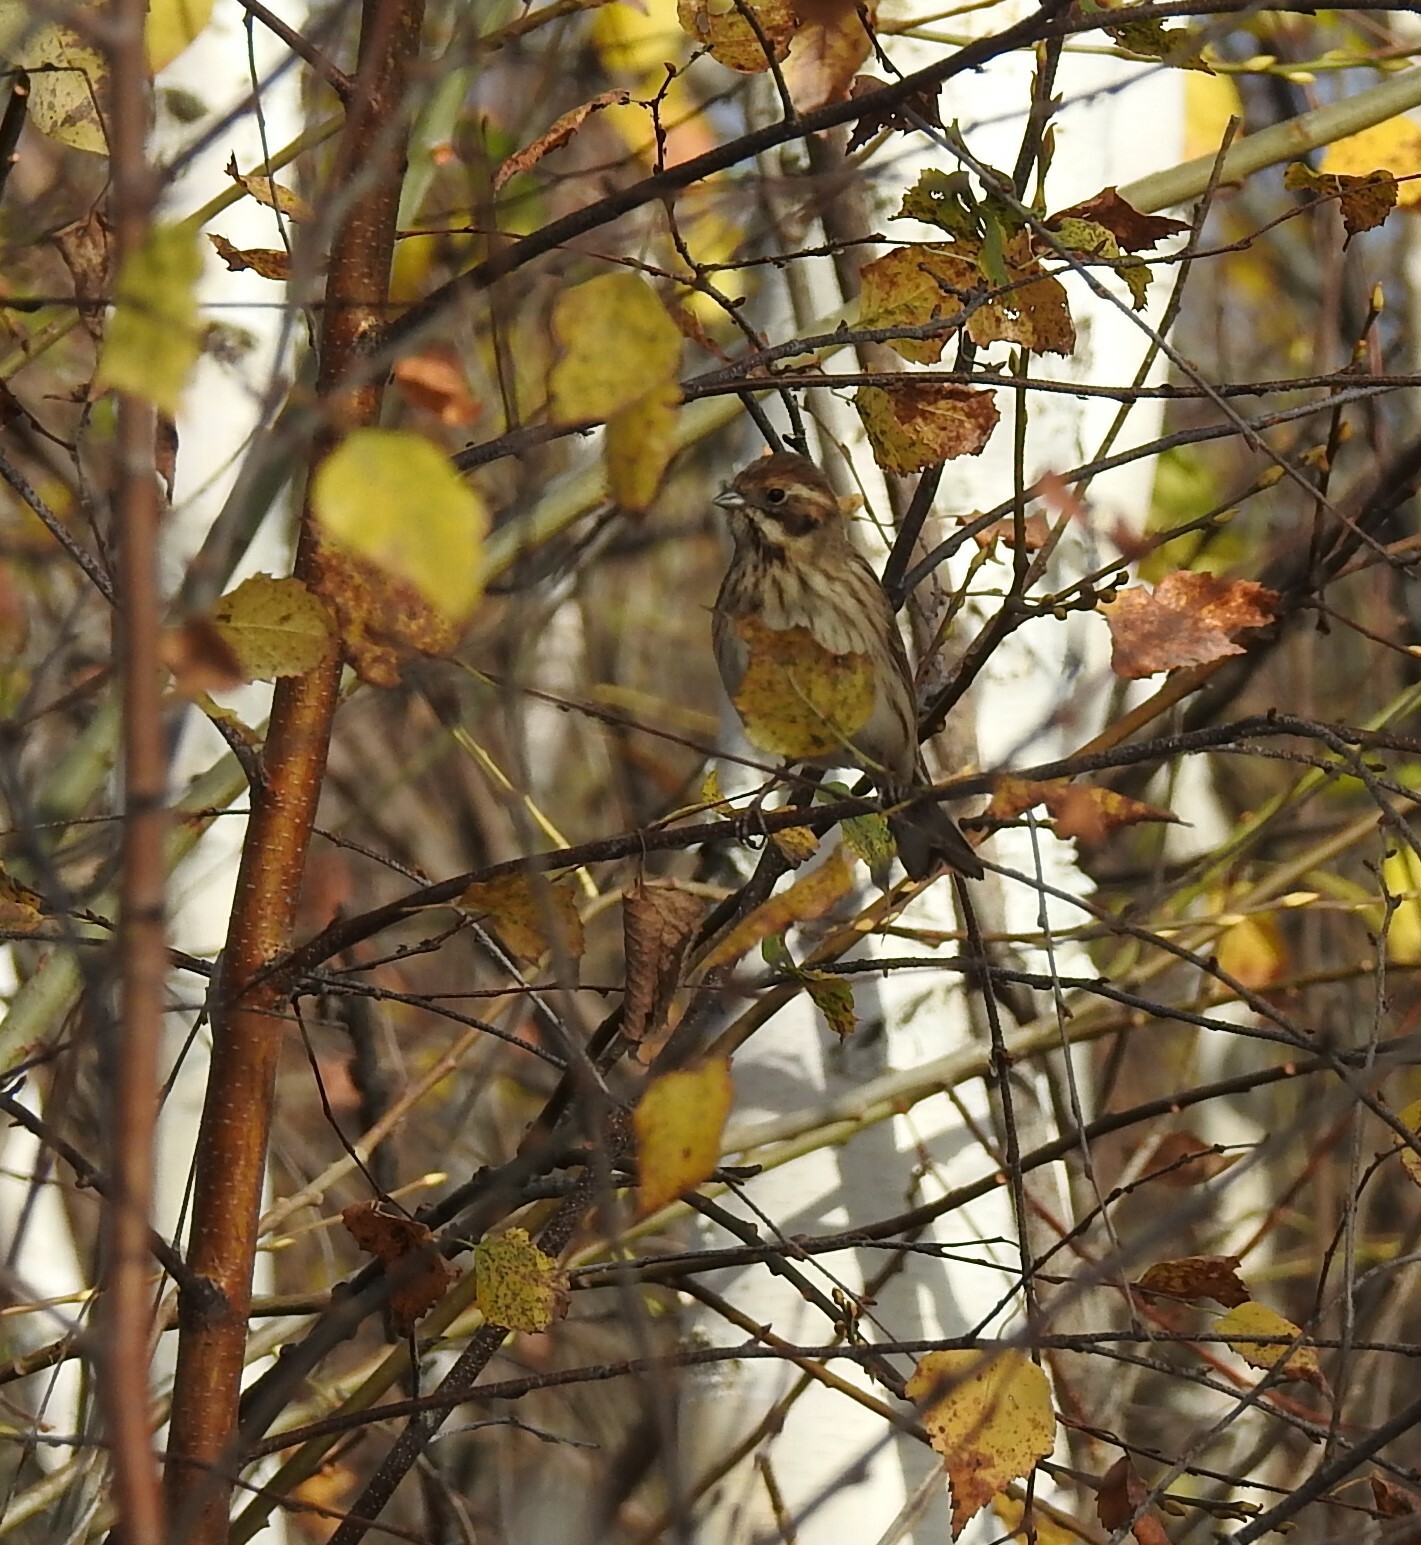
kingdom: Animalia
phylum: Chordata
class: Aves
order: Passeriformes
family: Emberizidae
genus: Emberiza
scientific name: Emberiza schoeniclus
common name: Reed bunting
